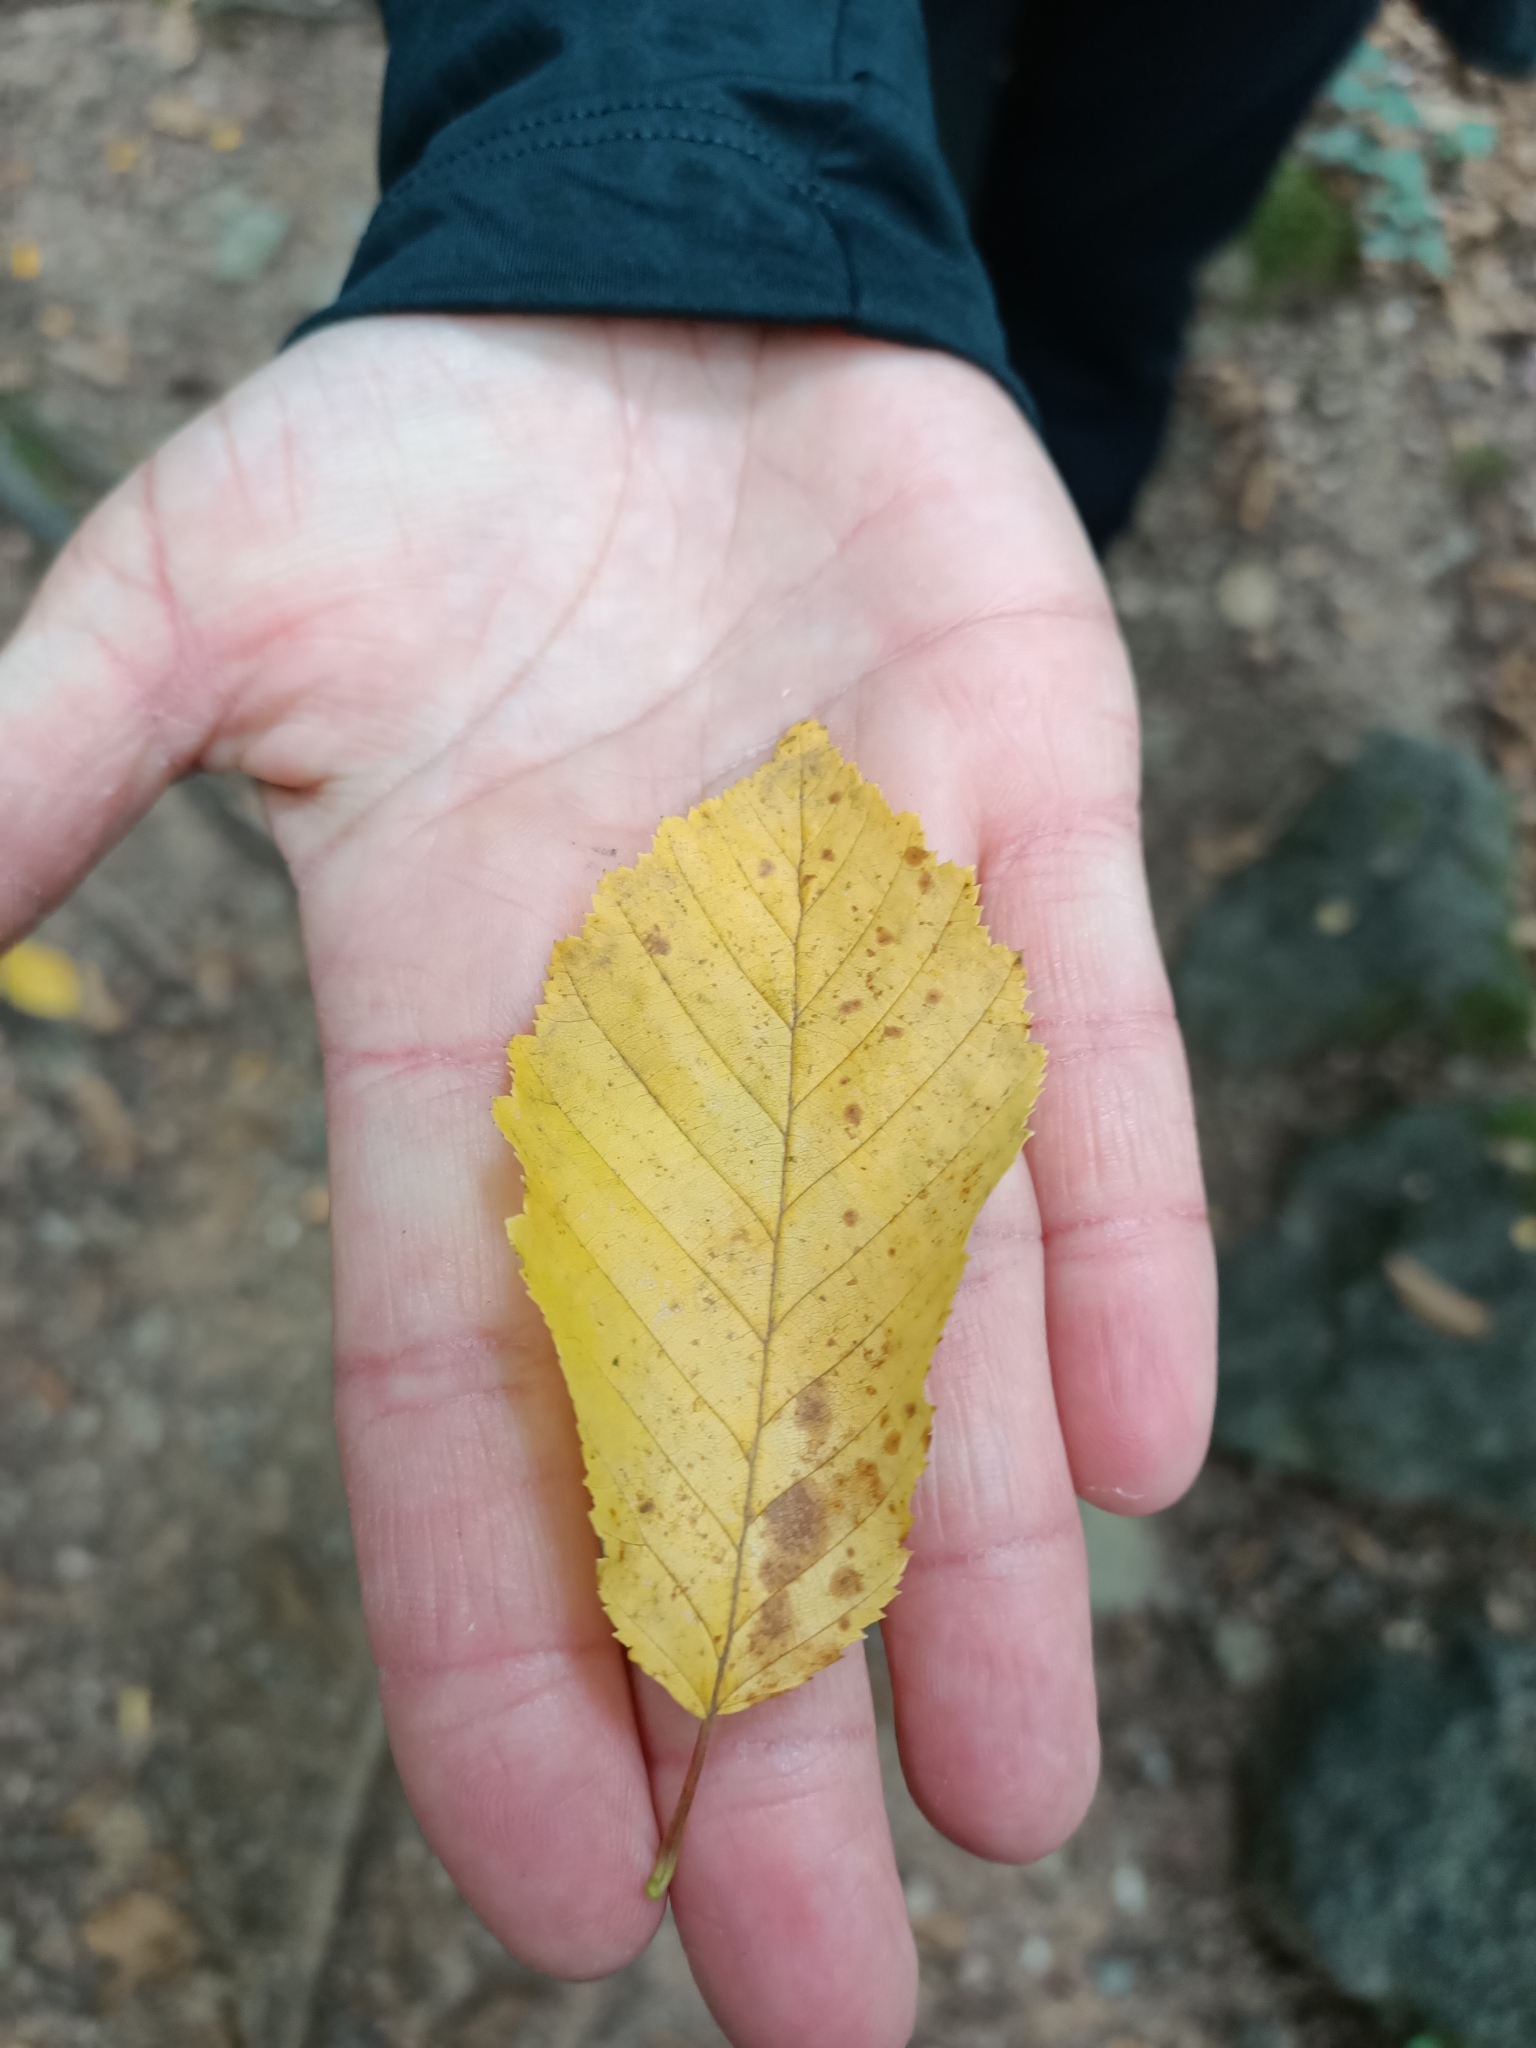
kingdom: Plantae
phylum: Tracheophyta
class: Magnoliopsida
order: Fagales
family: Betulaceae
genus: Carpinus
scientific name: Carpinus betulus
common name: Hornbeam
